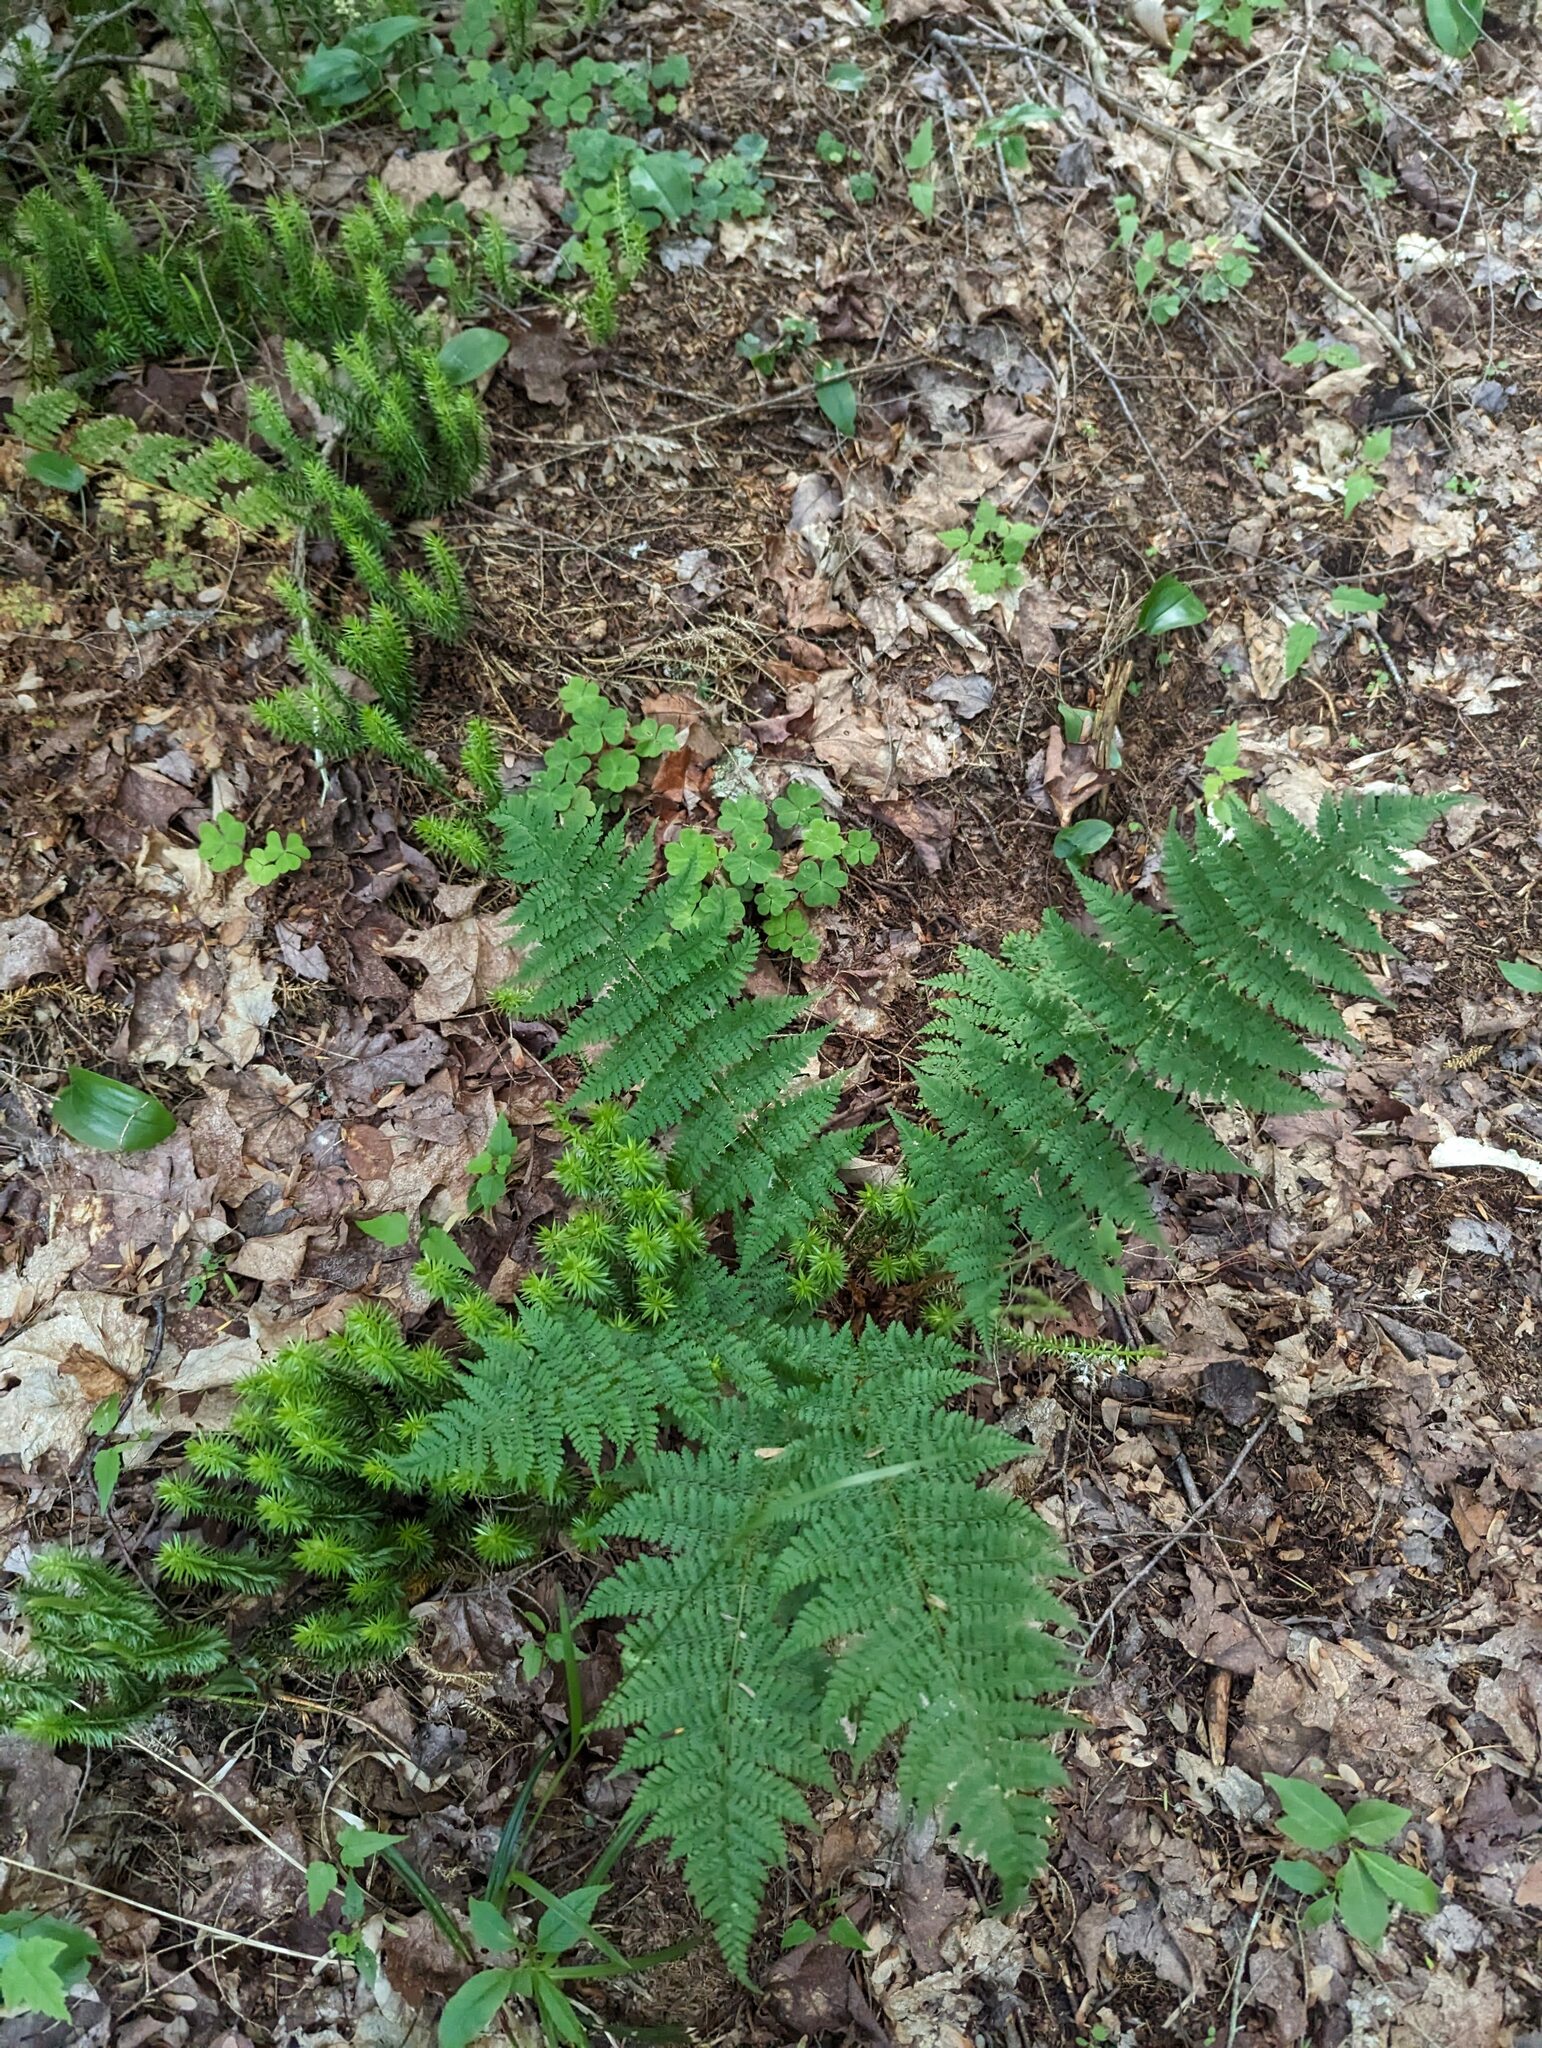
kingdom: Plantae
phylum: Tracheophyta
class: Polypodiopsida
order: Polypodiales
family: Dryopteridaceae
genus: Dryopteris
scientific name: Dryopteris intermedia
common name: Evergreen wood fern
